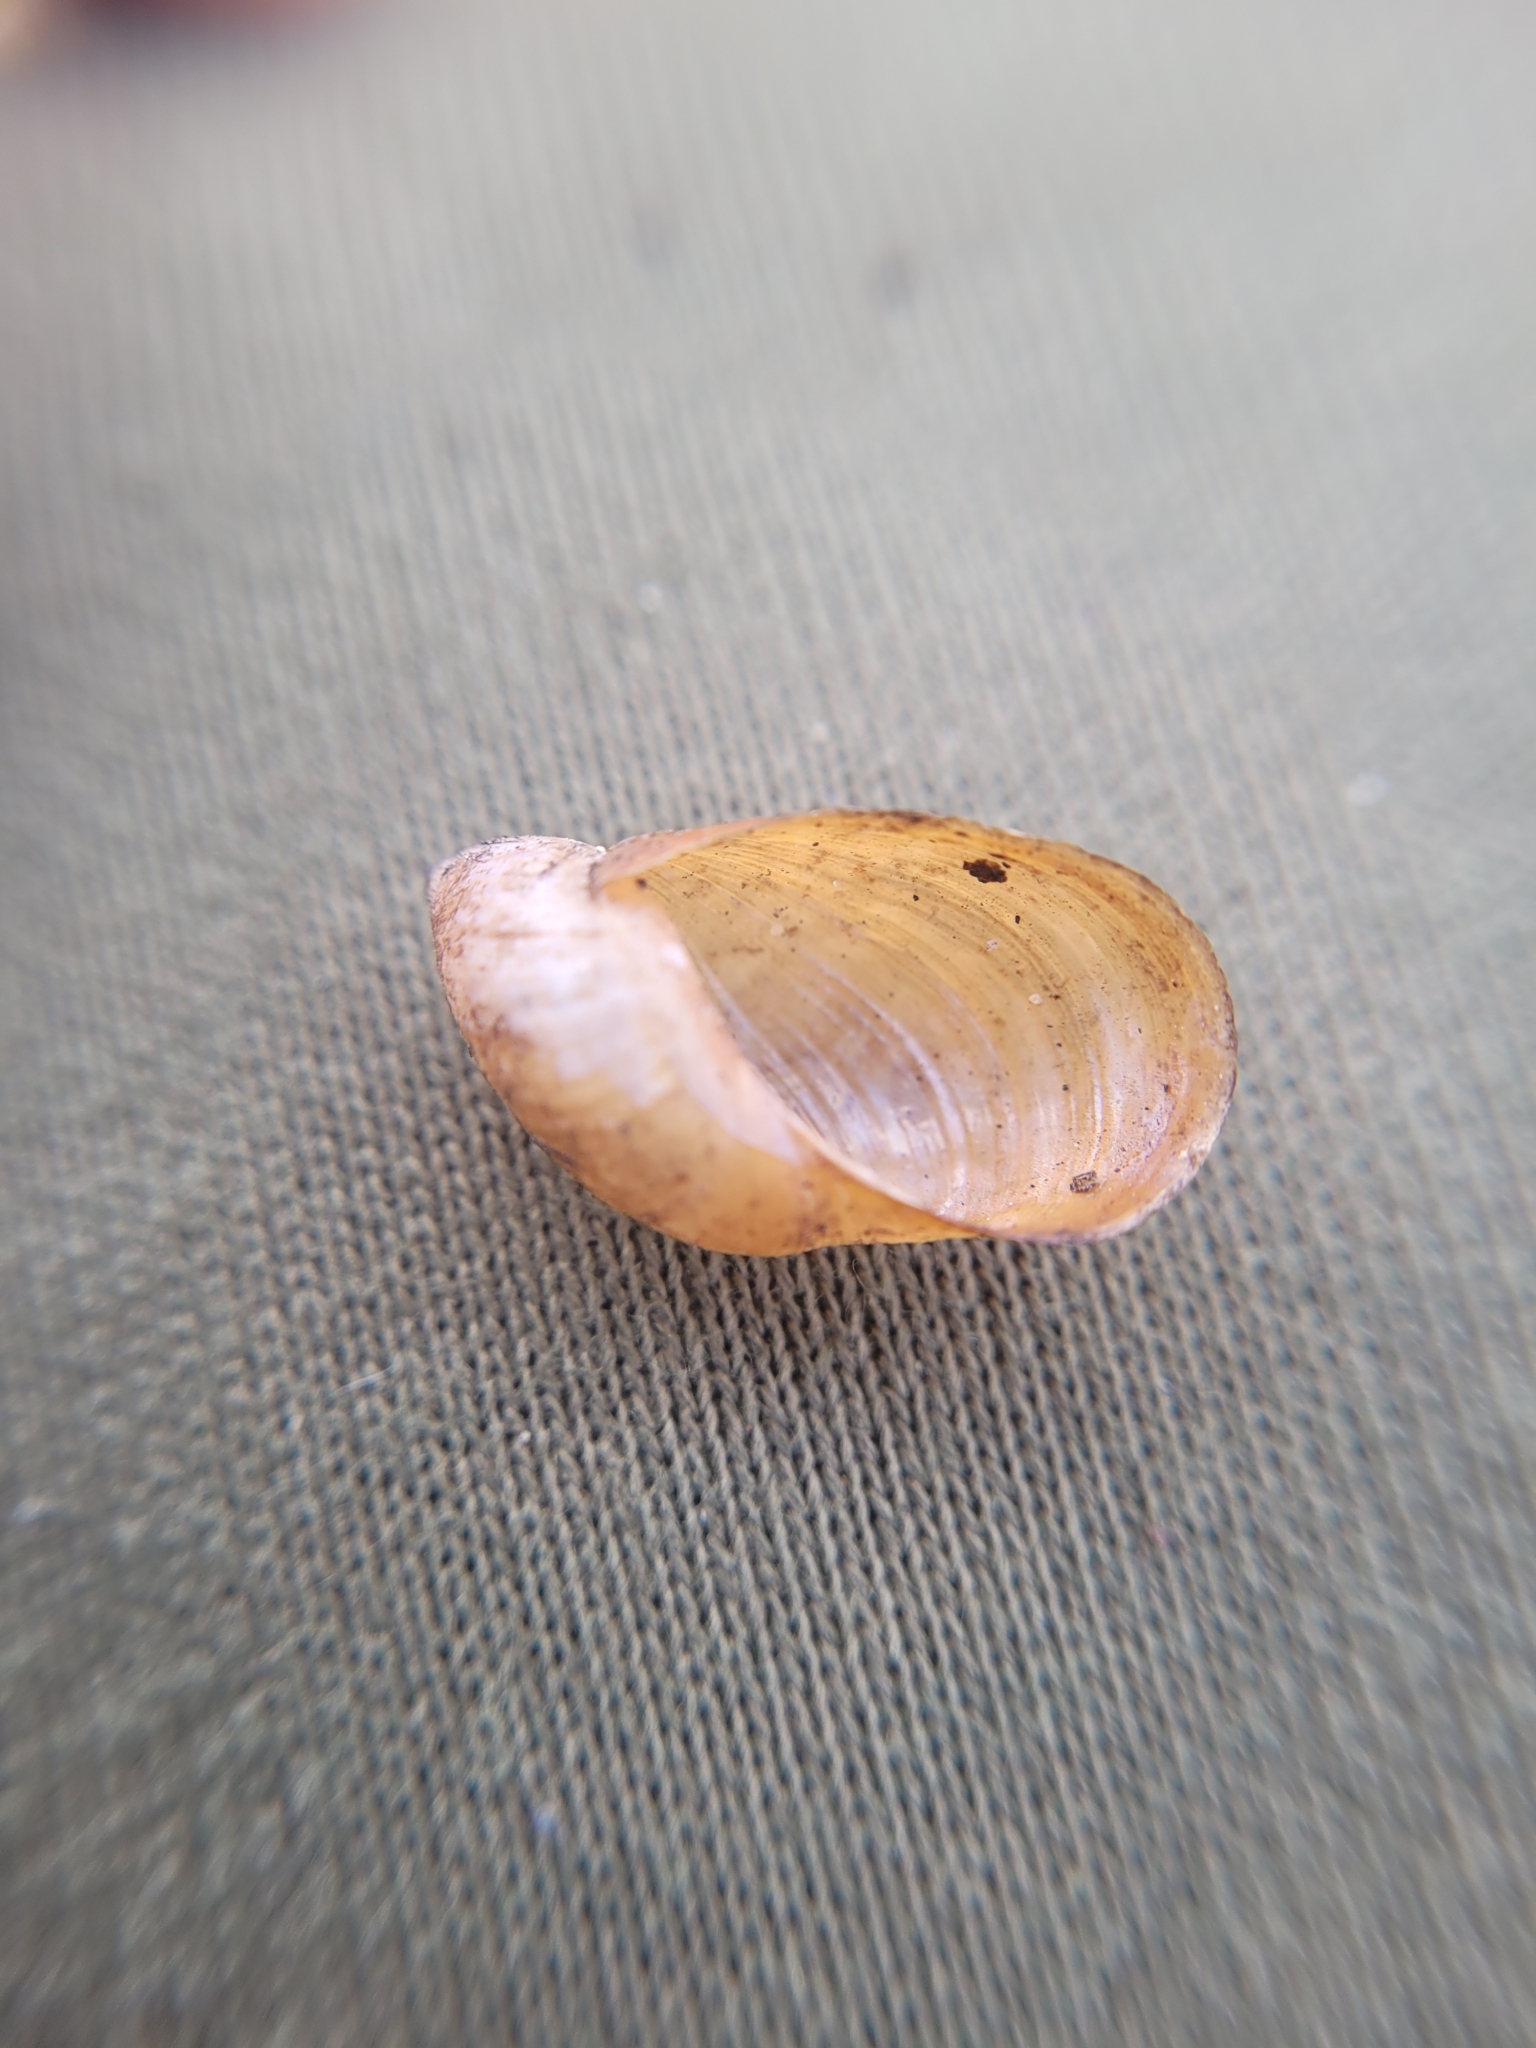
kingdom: Animalia
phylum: Mollusca
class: Gastropoda
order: Stylommatophora
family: Succineidae
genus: Succinea
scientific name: Succinea putris
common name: European ambersnail
